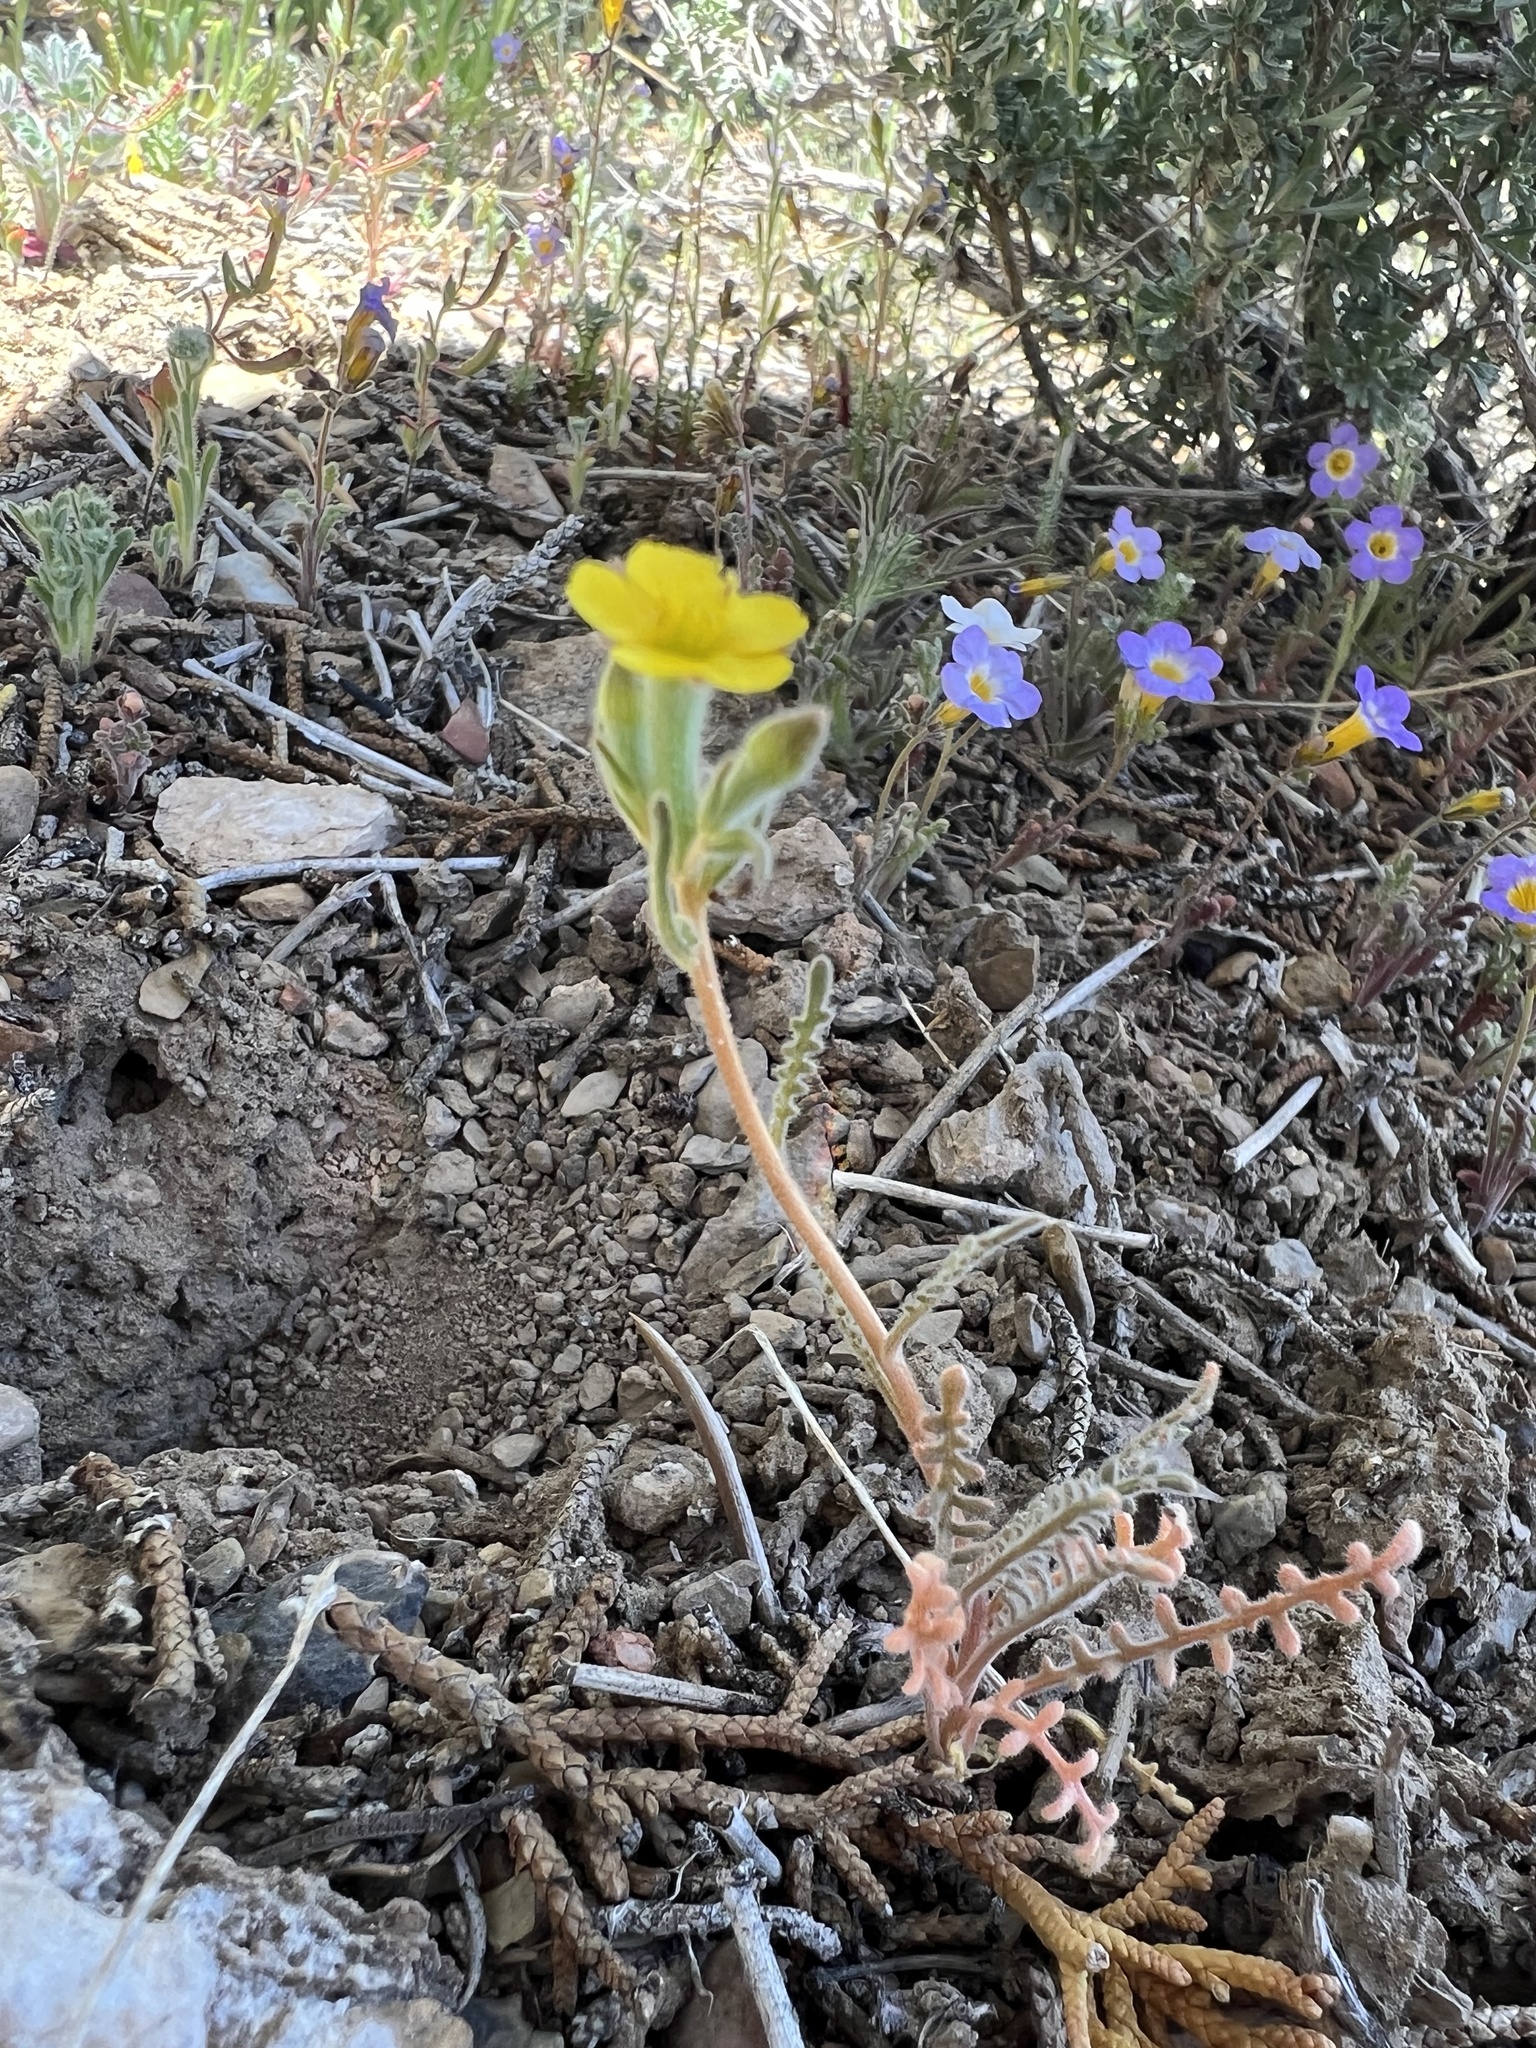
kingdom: Plantae
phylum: Tracheophyta
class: Magnoliopsida
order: Cornales
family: Loasaceae
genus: Mentzelia
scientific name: Mentzelia albicaulis
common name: White-stem blazingstar
